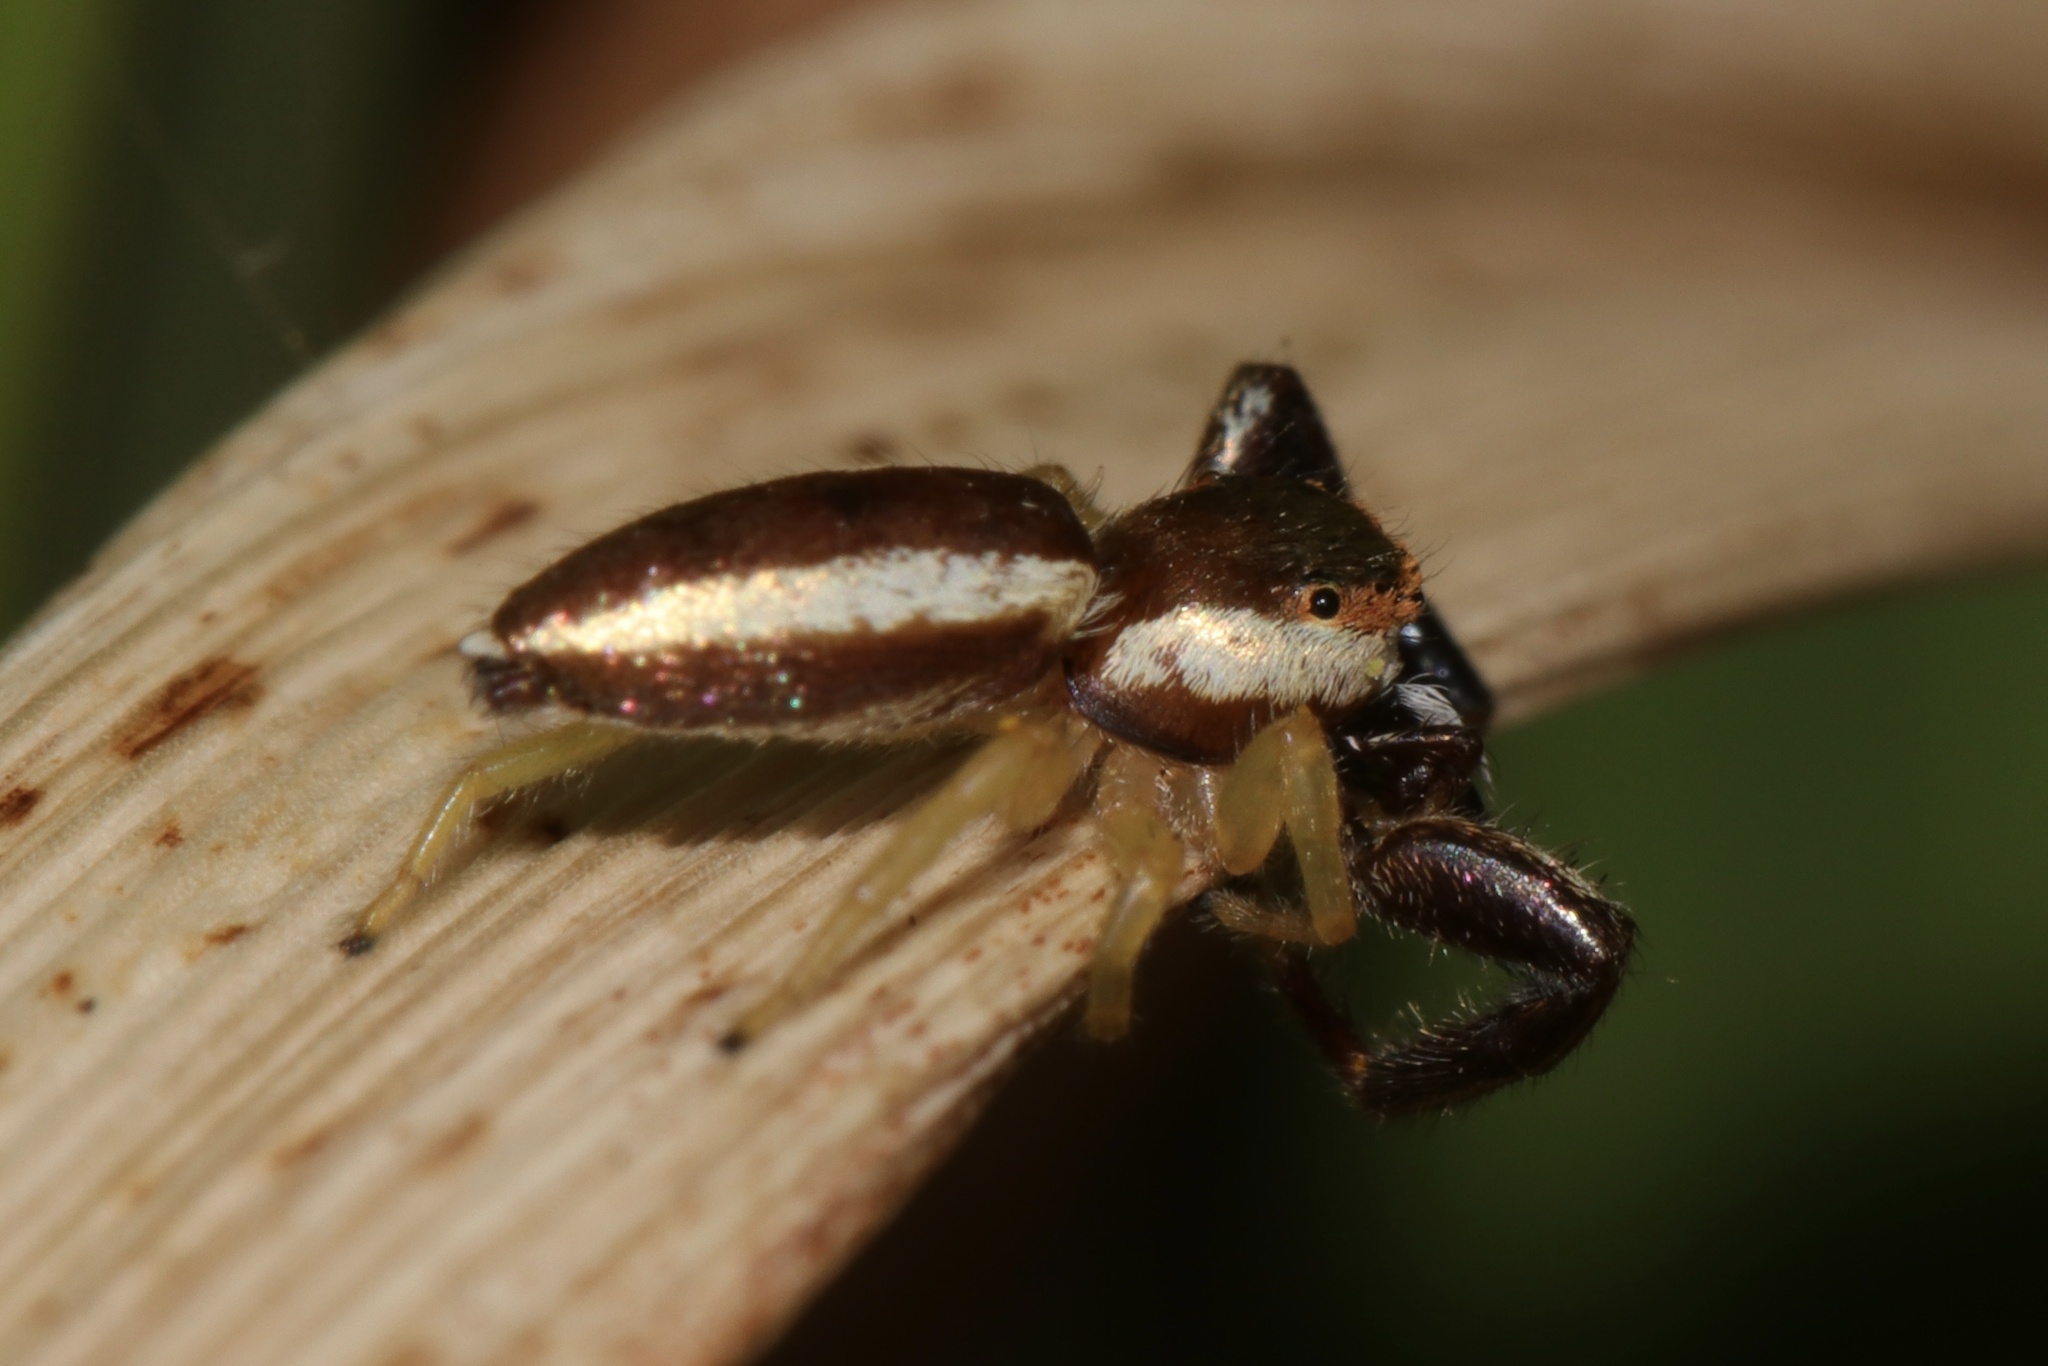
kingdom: Animalia
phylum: Arthropoda
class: Arachnida
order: Araneae
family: Salticidae
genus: Hentzia
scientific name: Hentzia palmarum
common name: Common hentz jumping spider
